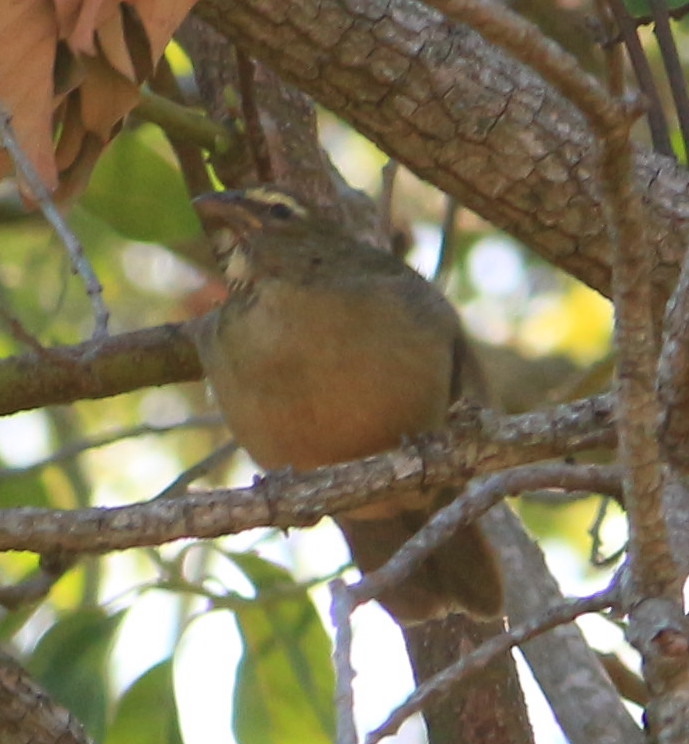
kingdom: Animalia
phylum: Chordata
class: Aves
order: Passeriformes
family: Thraupidae
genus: Saltator
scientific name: Saltator coerulescens
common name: Grayish saltator
